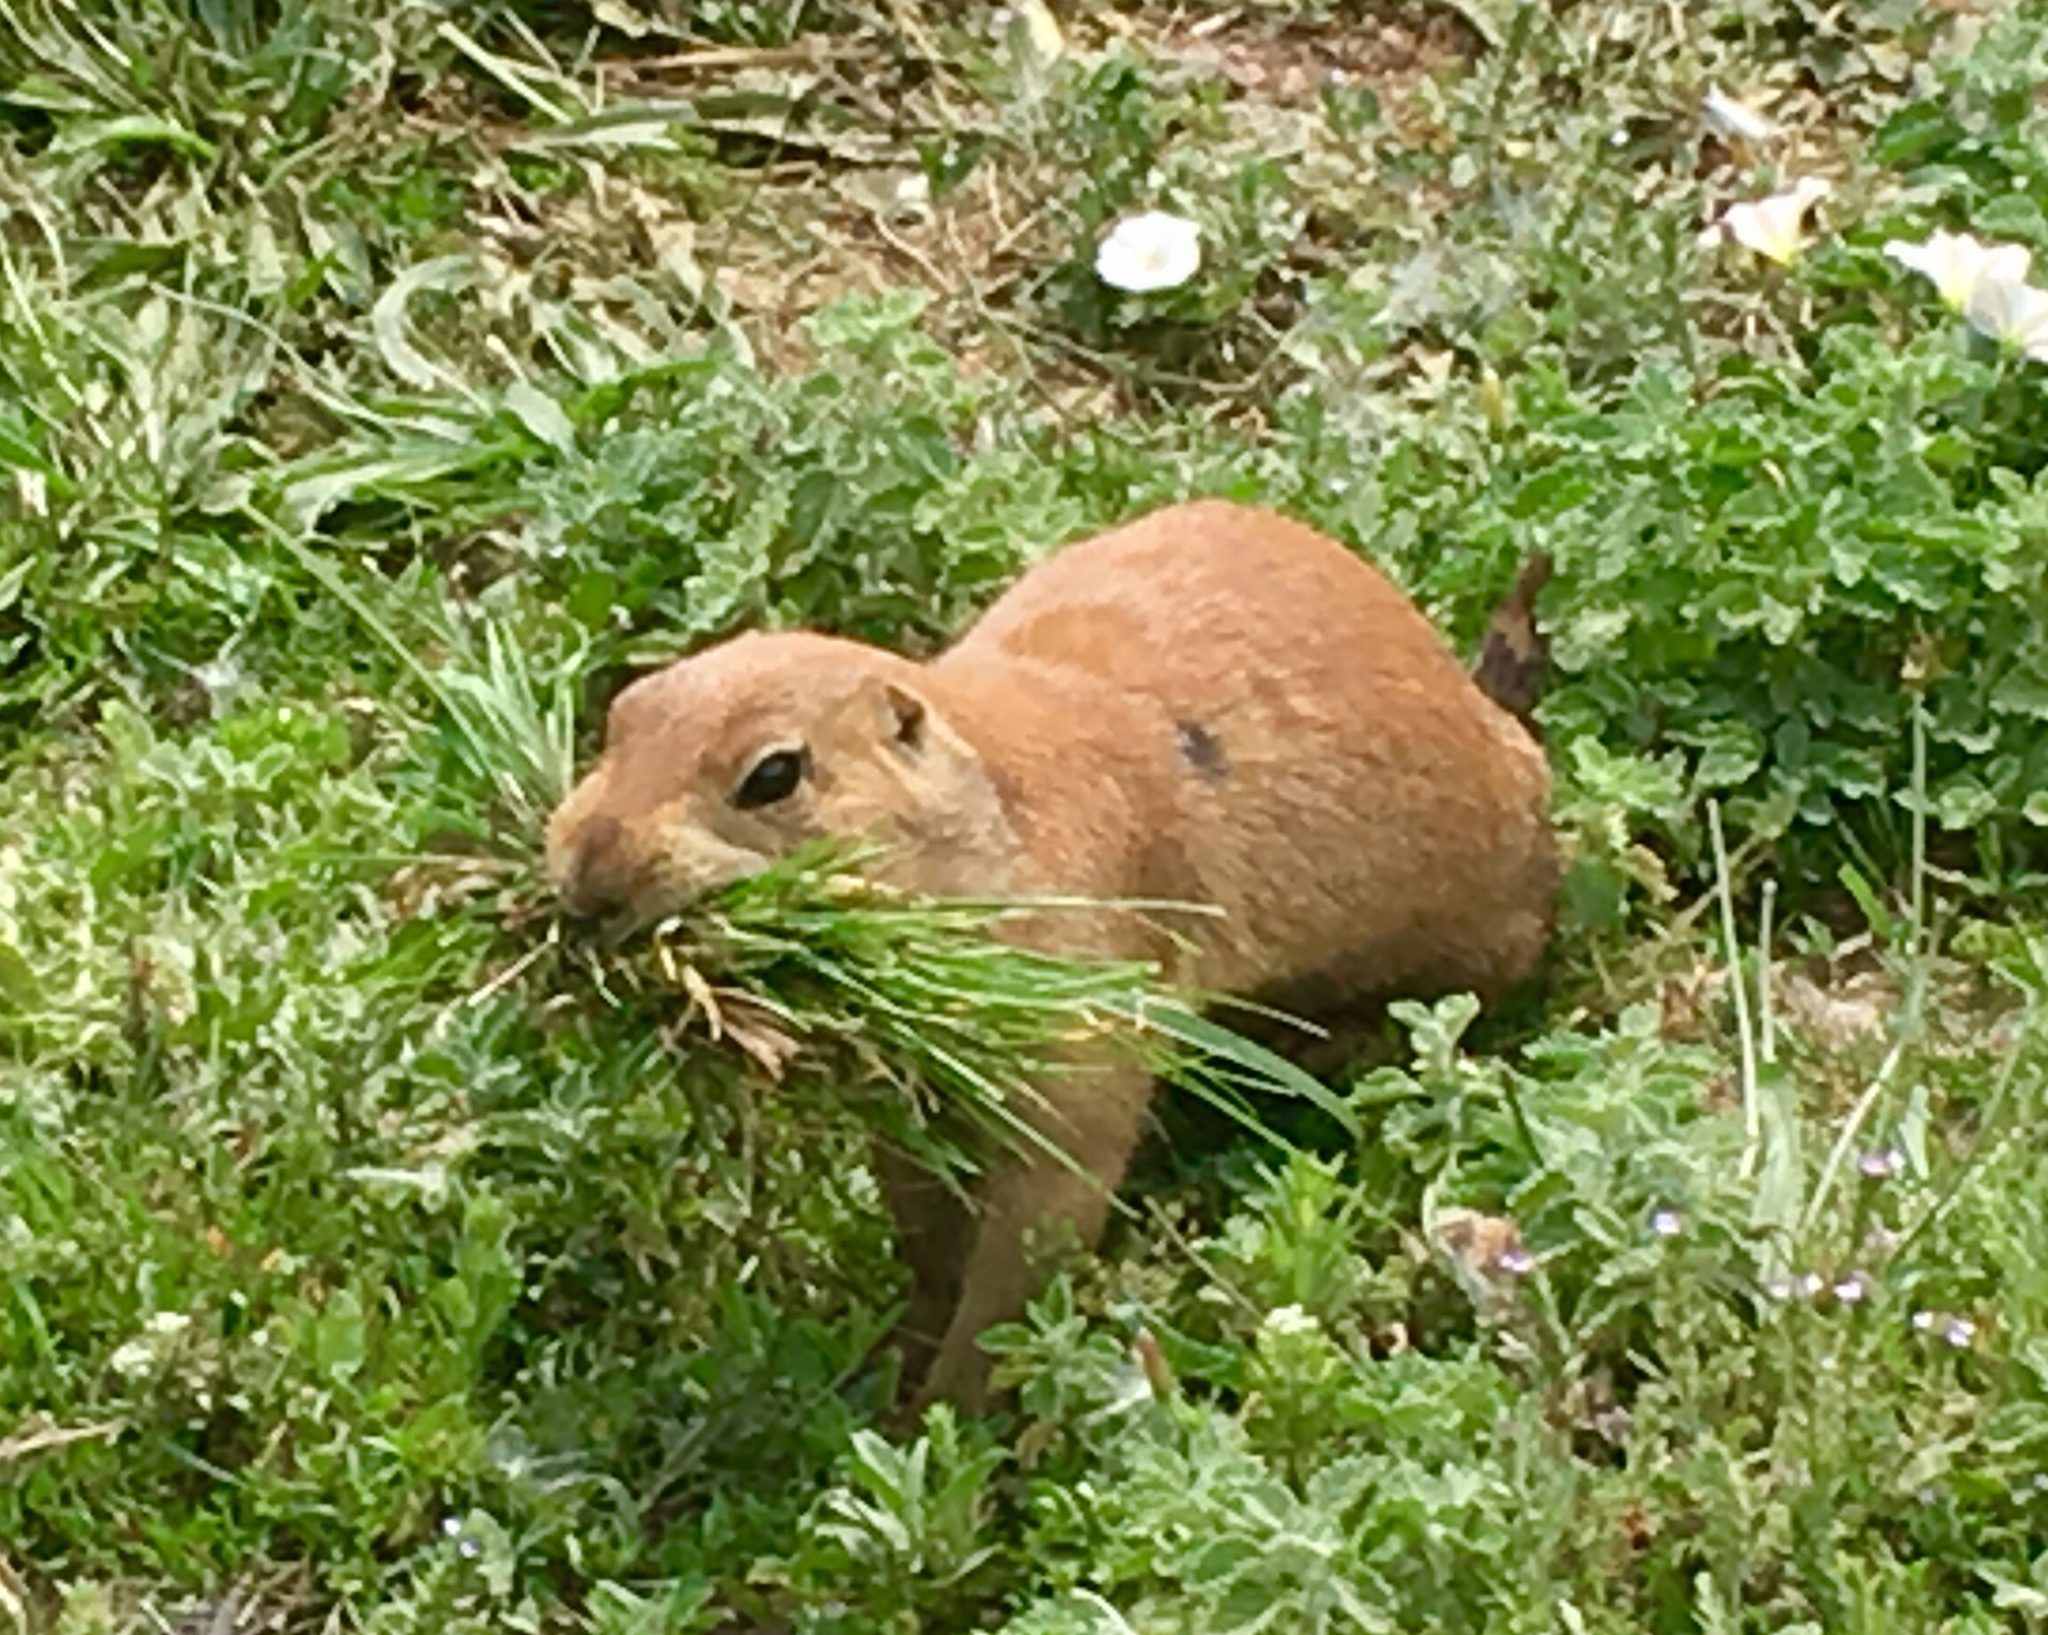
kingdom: Animalia
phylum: Chordata
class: Mammalia
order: Rodentia
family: Sciuridae
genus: Cynomys
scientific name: Cynomys ludovicianus
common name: Black-tailed prairie dog
